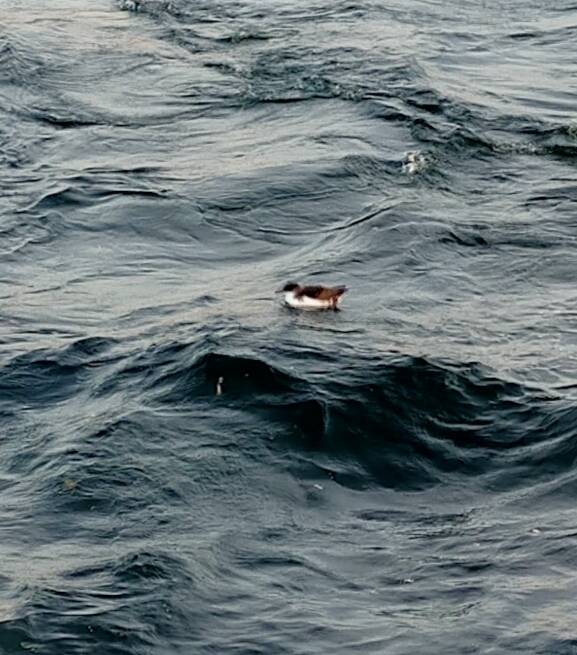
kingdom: Animalia
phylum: Chordata
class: Aves
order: Procellariiformes
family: Procellariidae
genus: Puffinus
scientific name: Puffinus yelkouan
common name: Yelkouan shearwater
